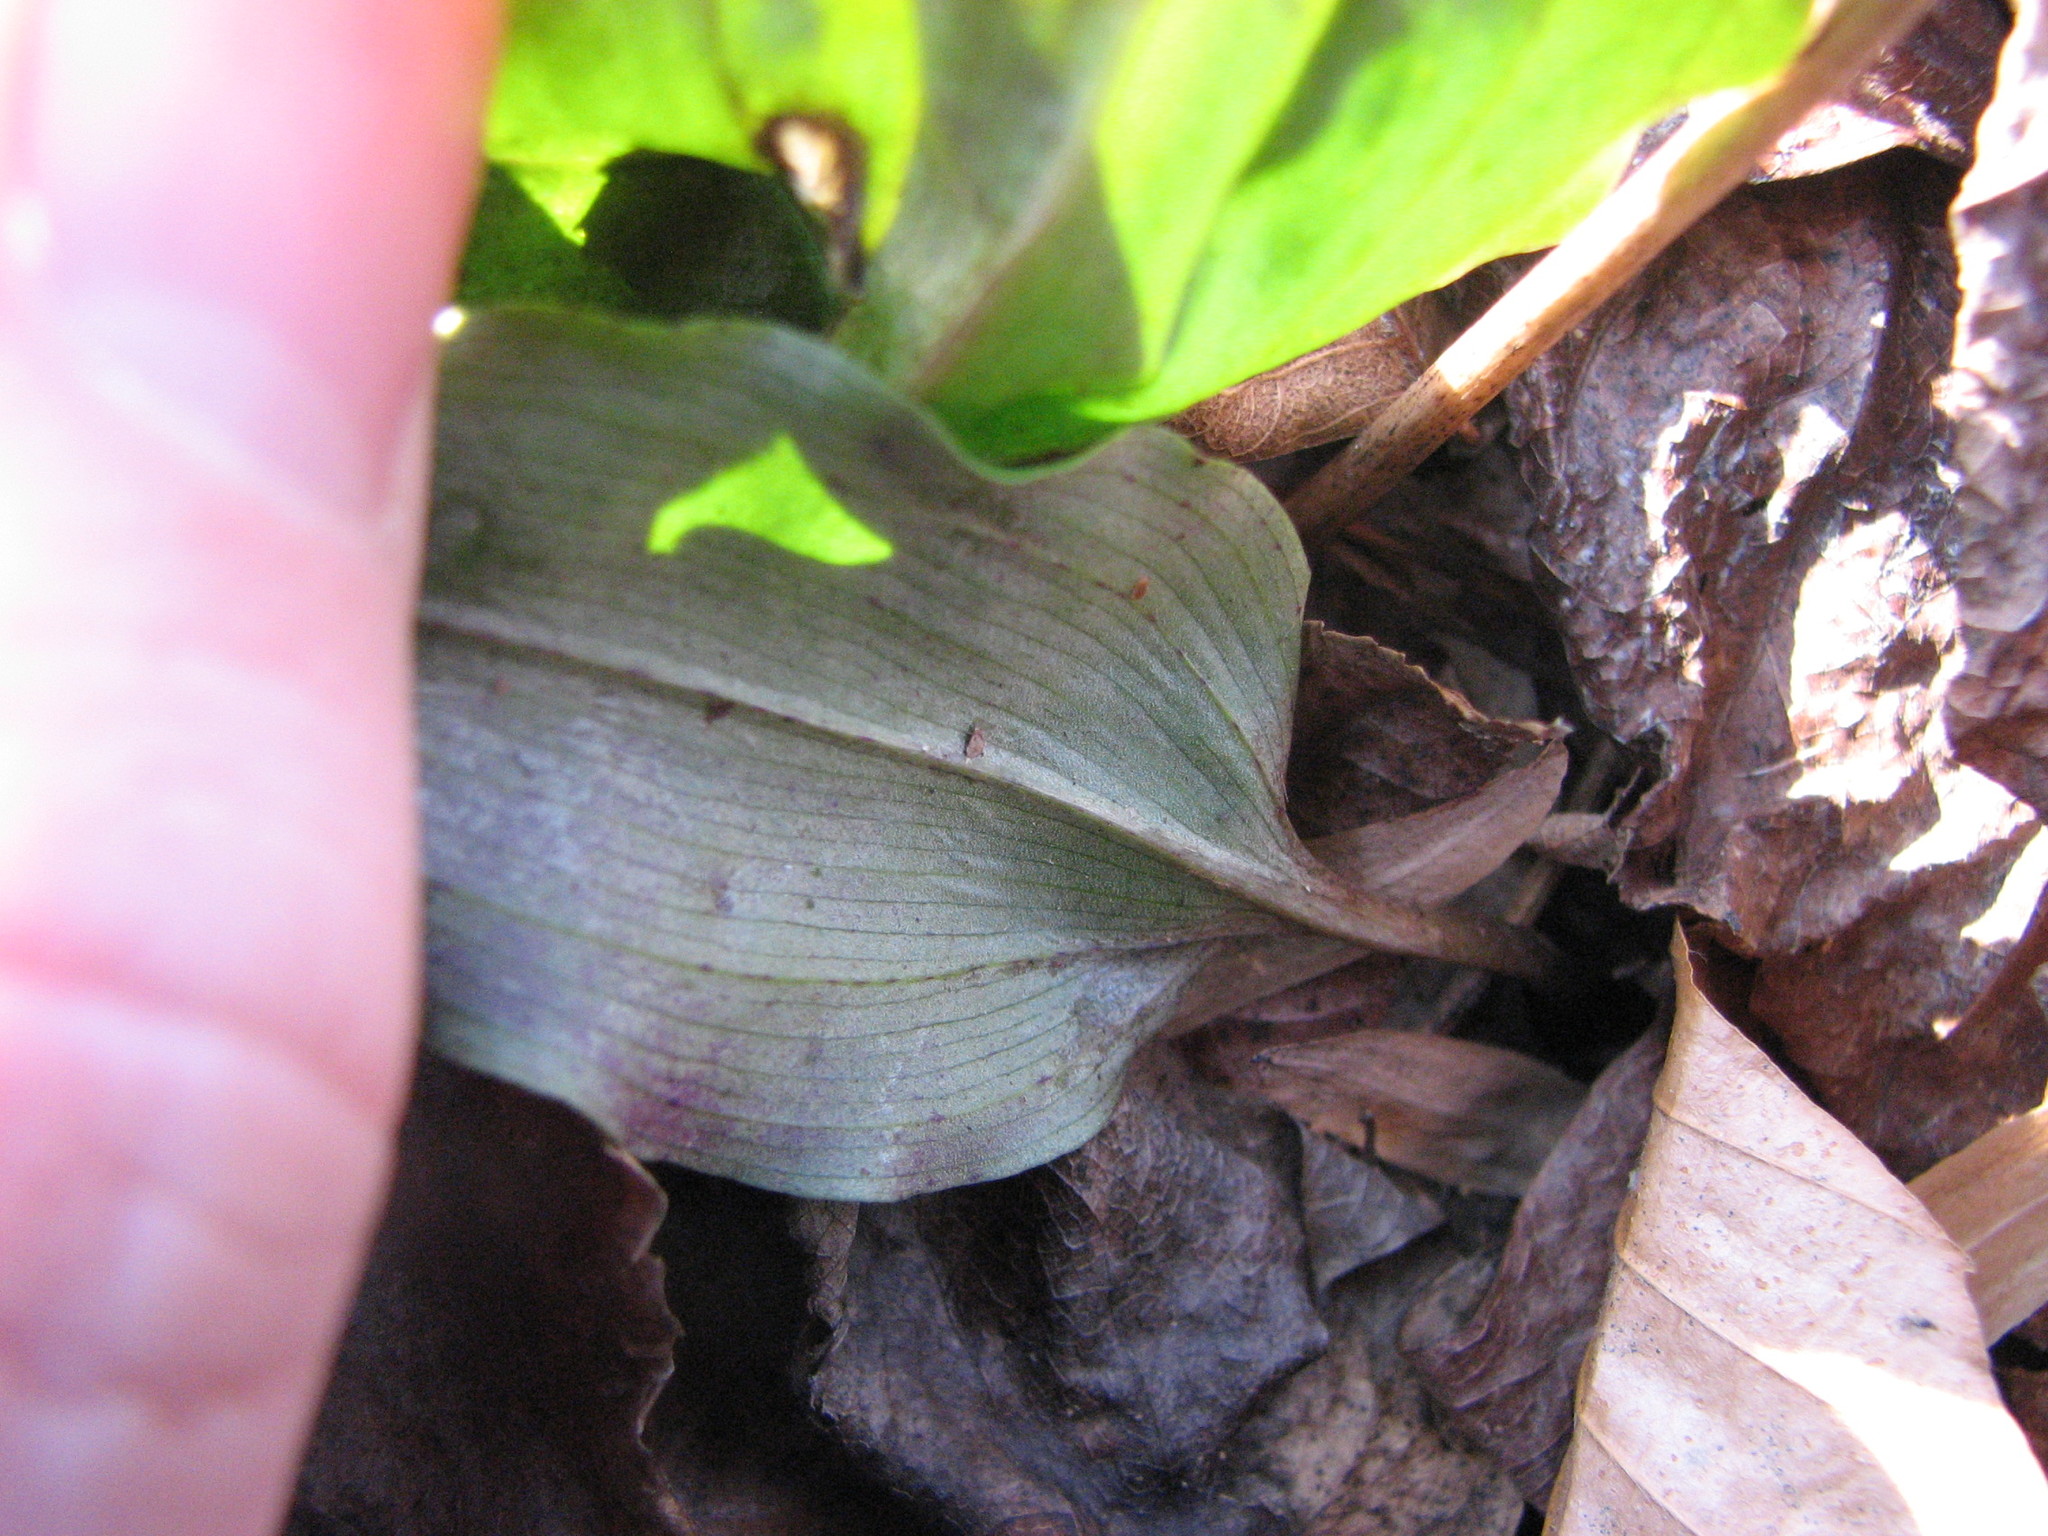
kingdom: Plantae
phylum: Tracheophyta
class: Liliopsida
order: Asparagales
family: Orchidaceae
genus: Tipularia
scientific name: Tipularia discolor
